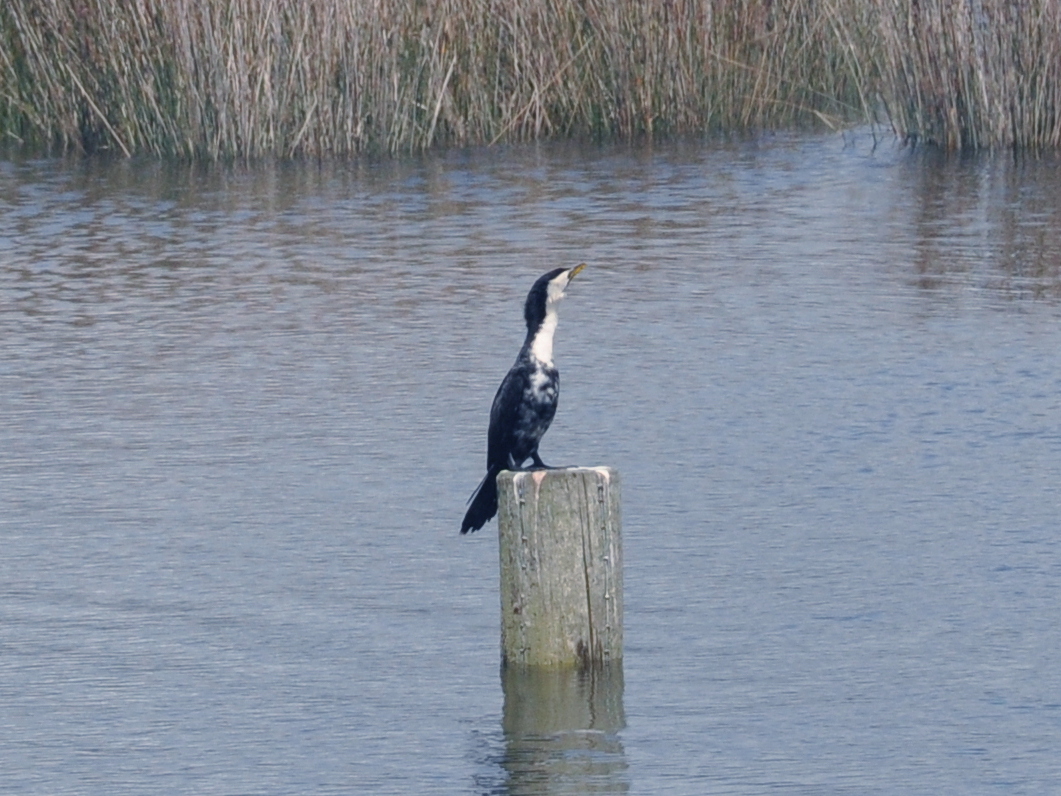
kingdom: Animalia
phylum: Chordata
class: Aves
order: Suliformes
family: Phalacrocoracidae
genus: Microcarbo
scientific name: Microcarbo melanoleucos
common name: Little pied cormorant
